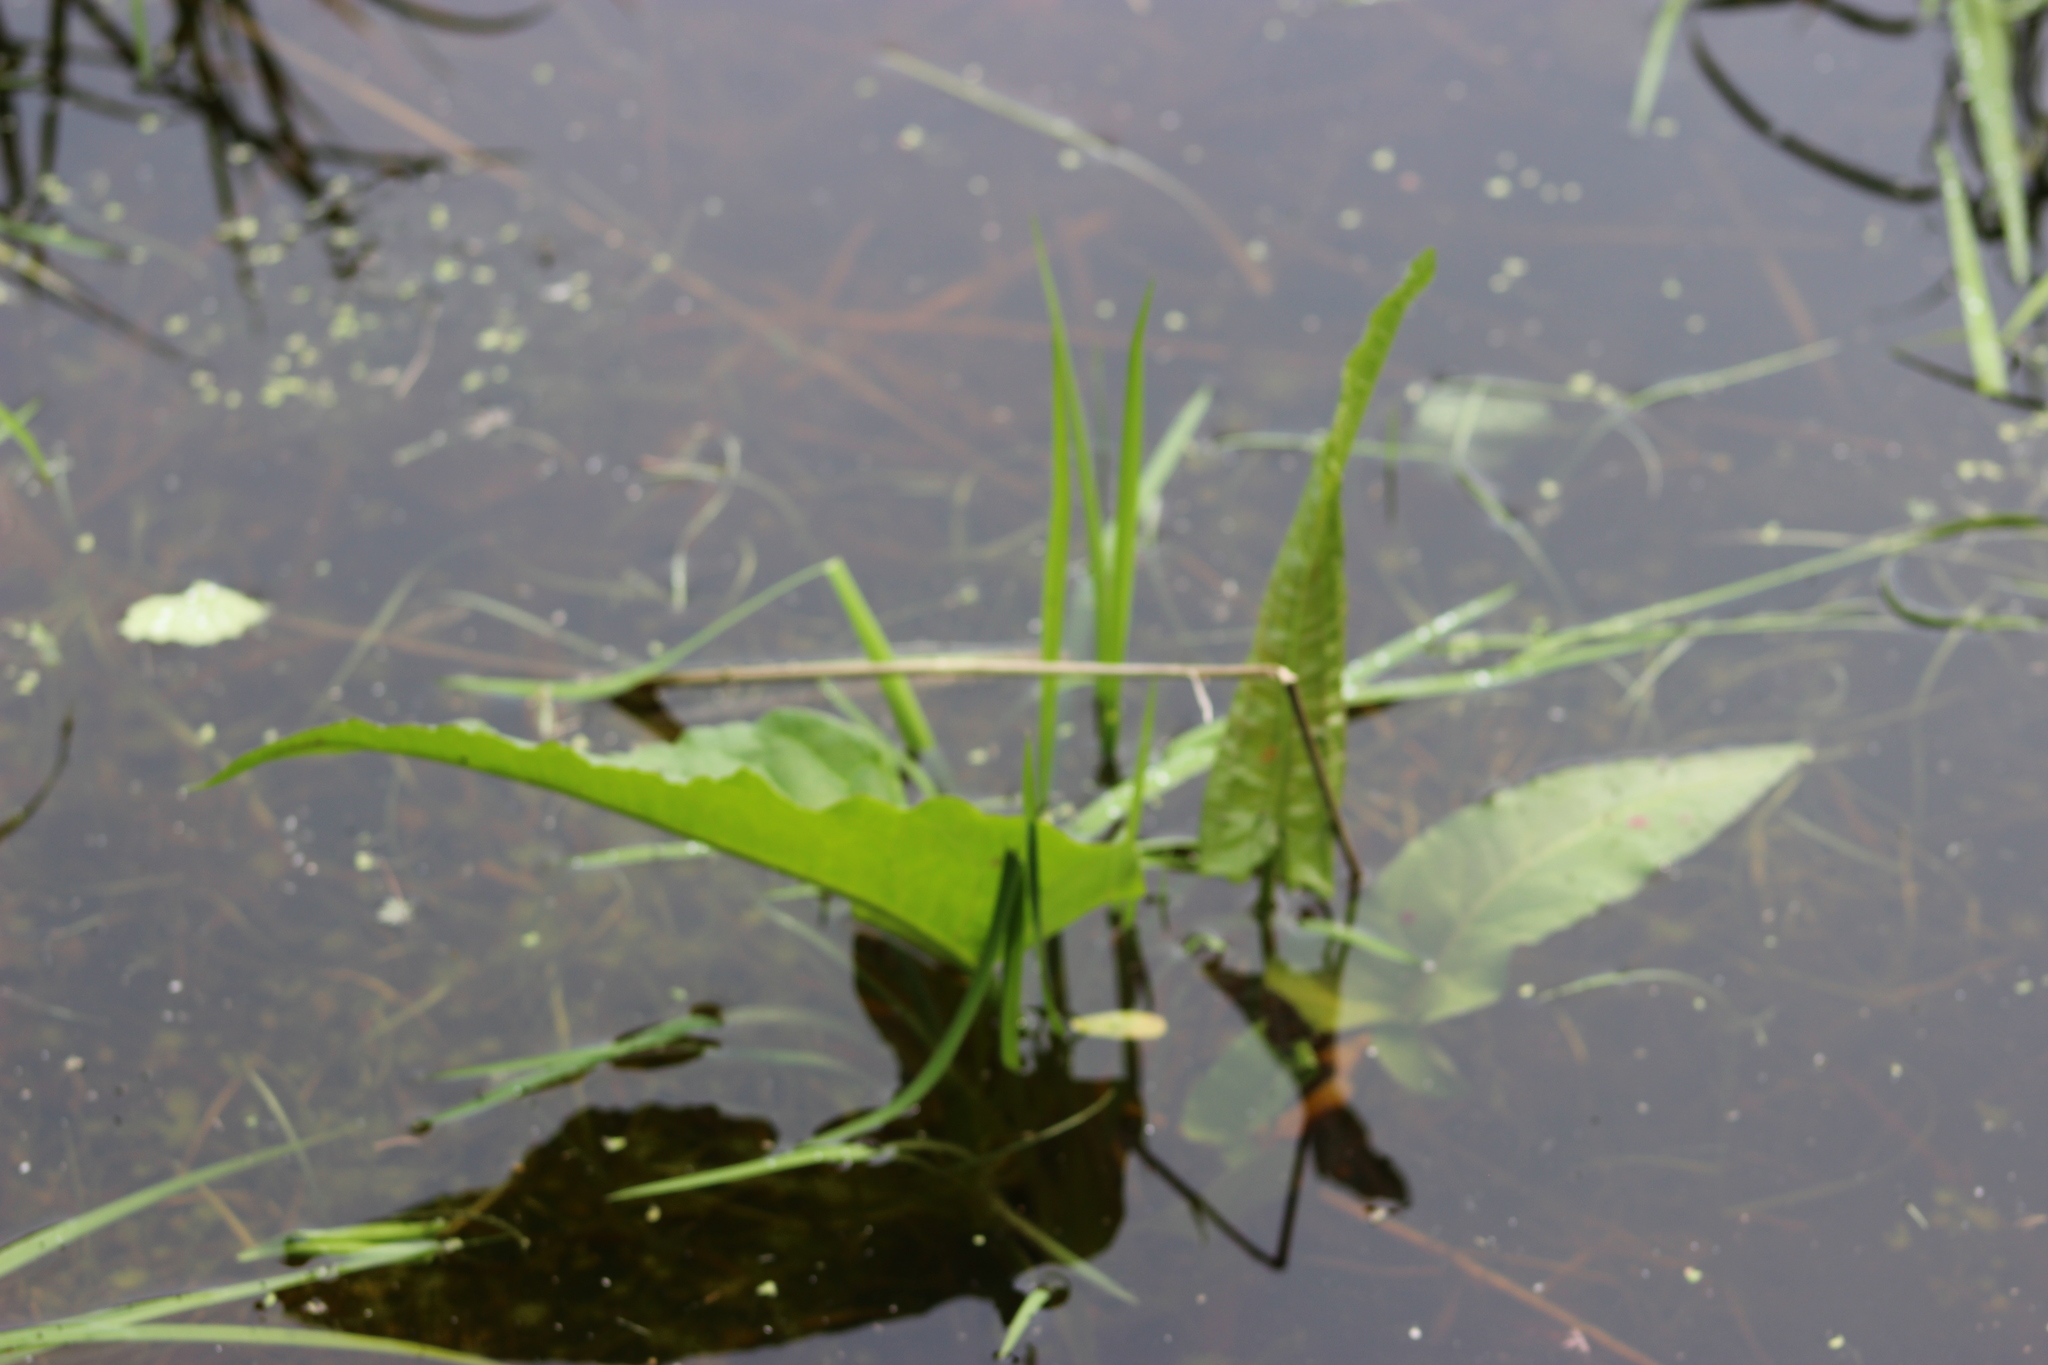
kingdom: Plantae
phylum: Tracheophyta
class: Magnoliopsida
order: Caryophyllales
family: Polygonaceae
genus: Rumex
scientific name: Rumex aquaticus
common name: Scottish dock
